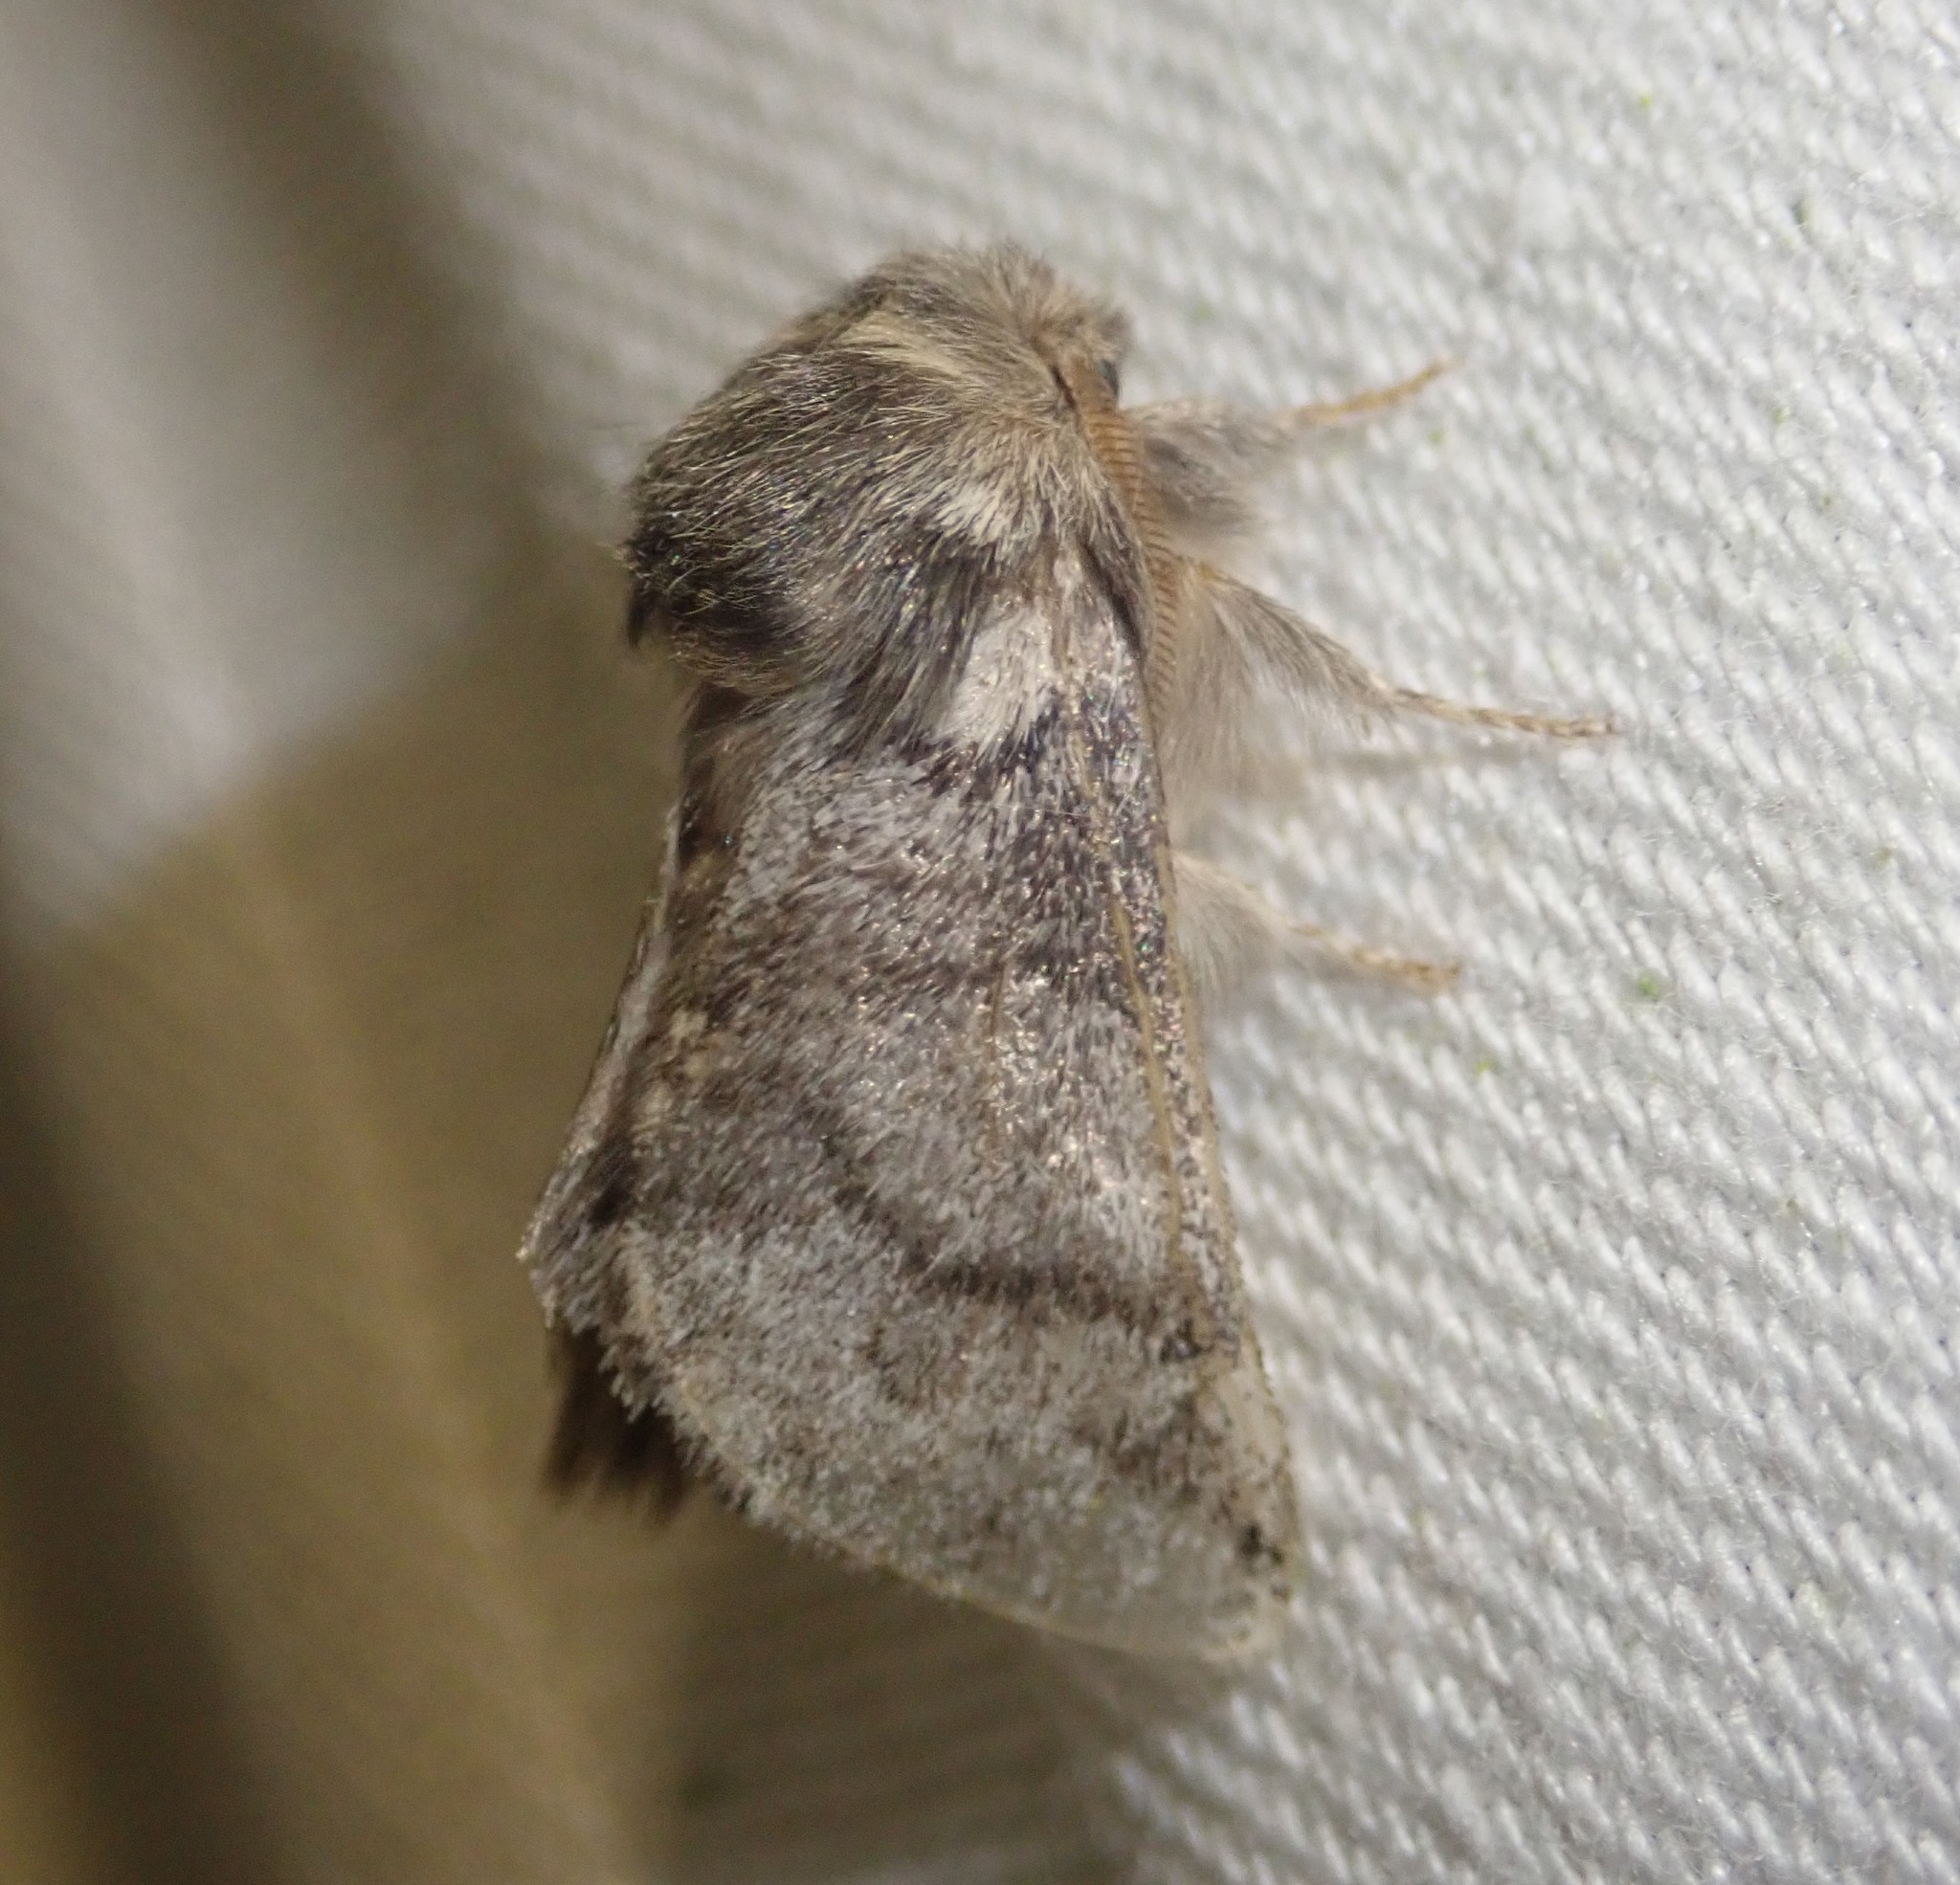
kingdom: Animalia
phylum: Arthropoda
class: Insecta
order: Lepidoptera
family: Notodontidae
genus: Thaumetopoea
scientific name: Thaumetopoea processionea
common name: Oak processionea
